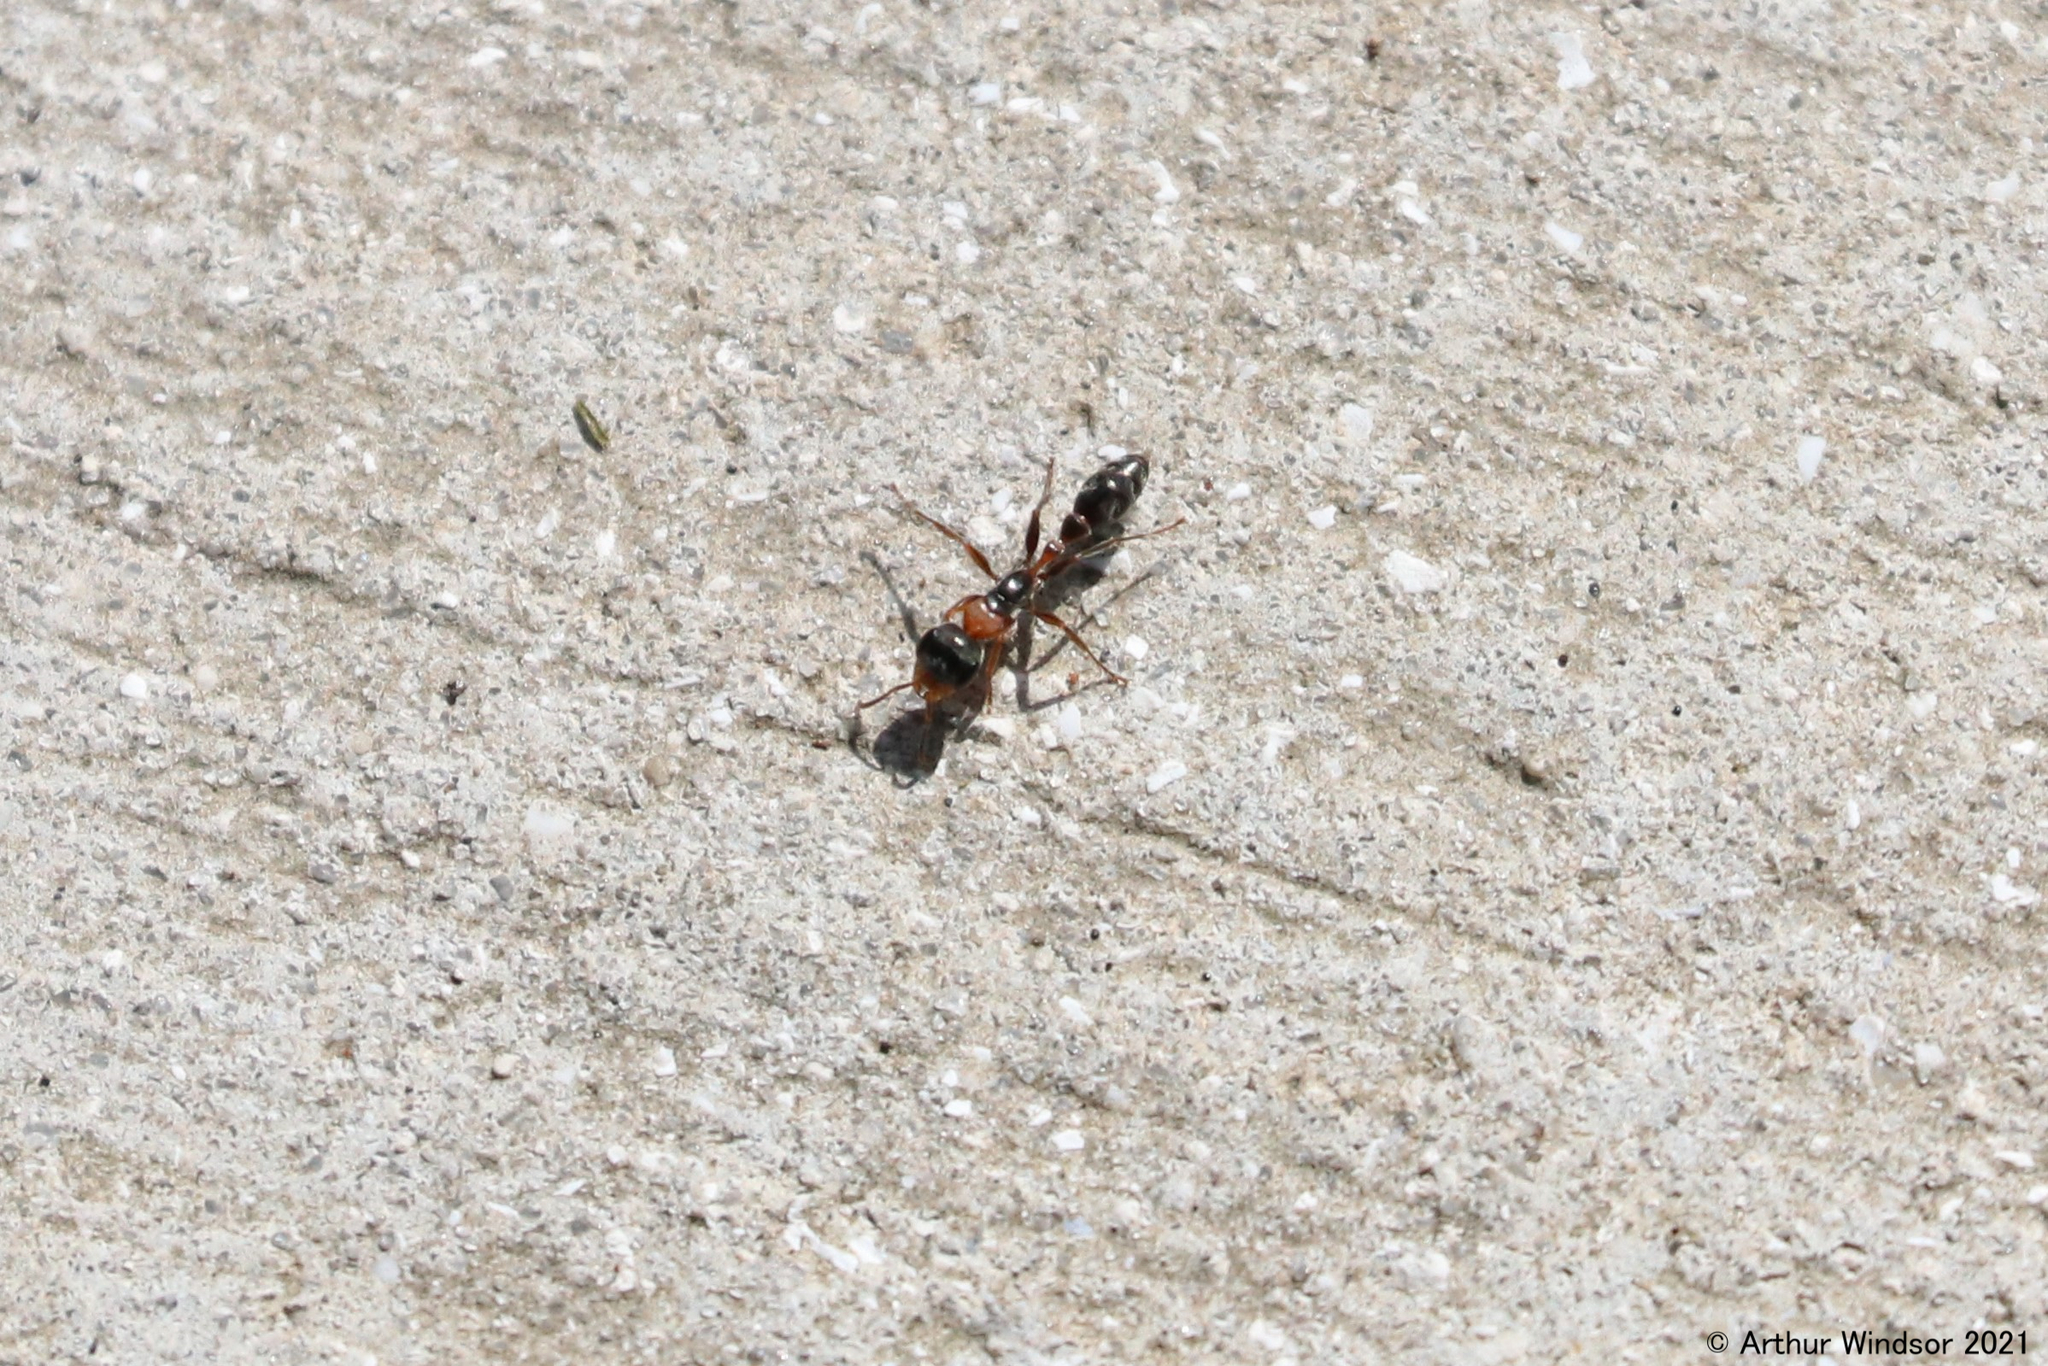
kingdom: Animalia
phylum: Arthropoda
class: Insecta
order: Hymenoptera
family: Formicidae
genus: Pseudomyrmex
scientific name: Pseudomyrmex gracilis
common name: Graceful twig ant
